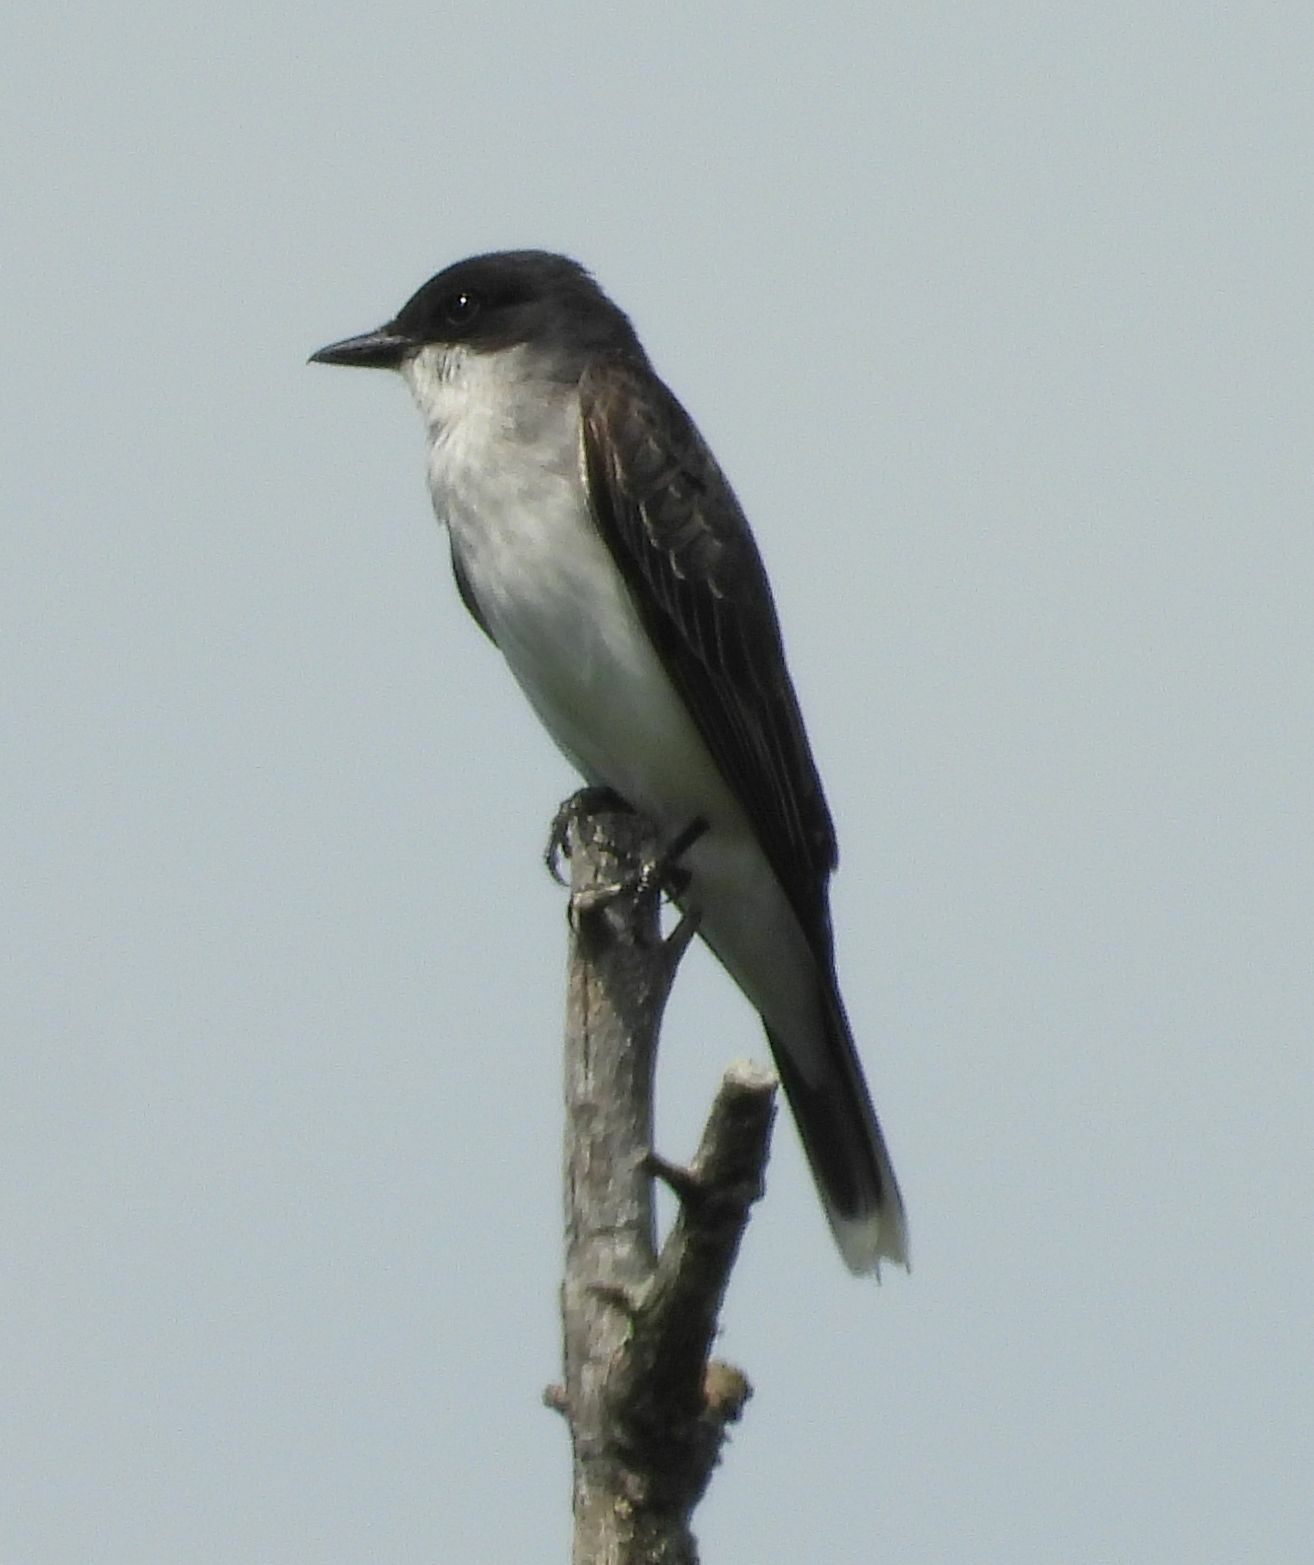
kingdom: Animalia
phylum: Chordata
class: Aves
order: Passeriformes
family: Tyrannidae
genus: Tyrannus
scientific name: Tyrannus tyrannus
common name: Eastern kingbird
